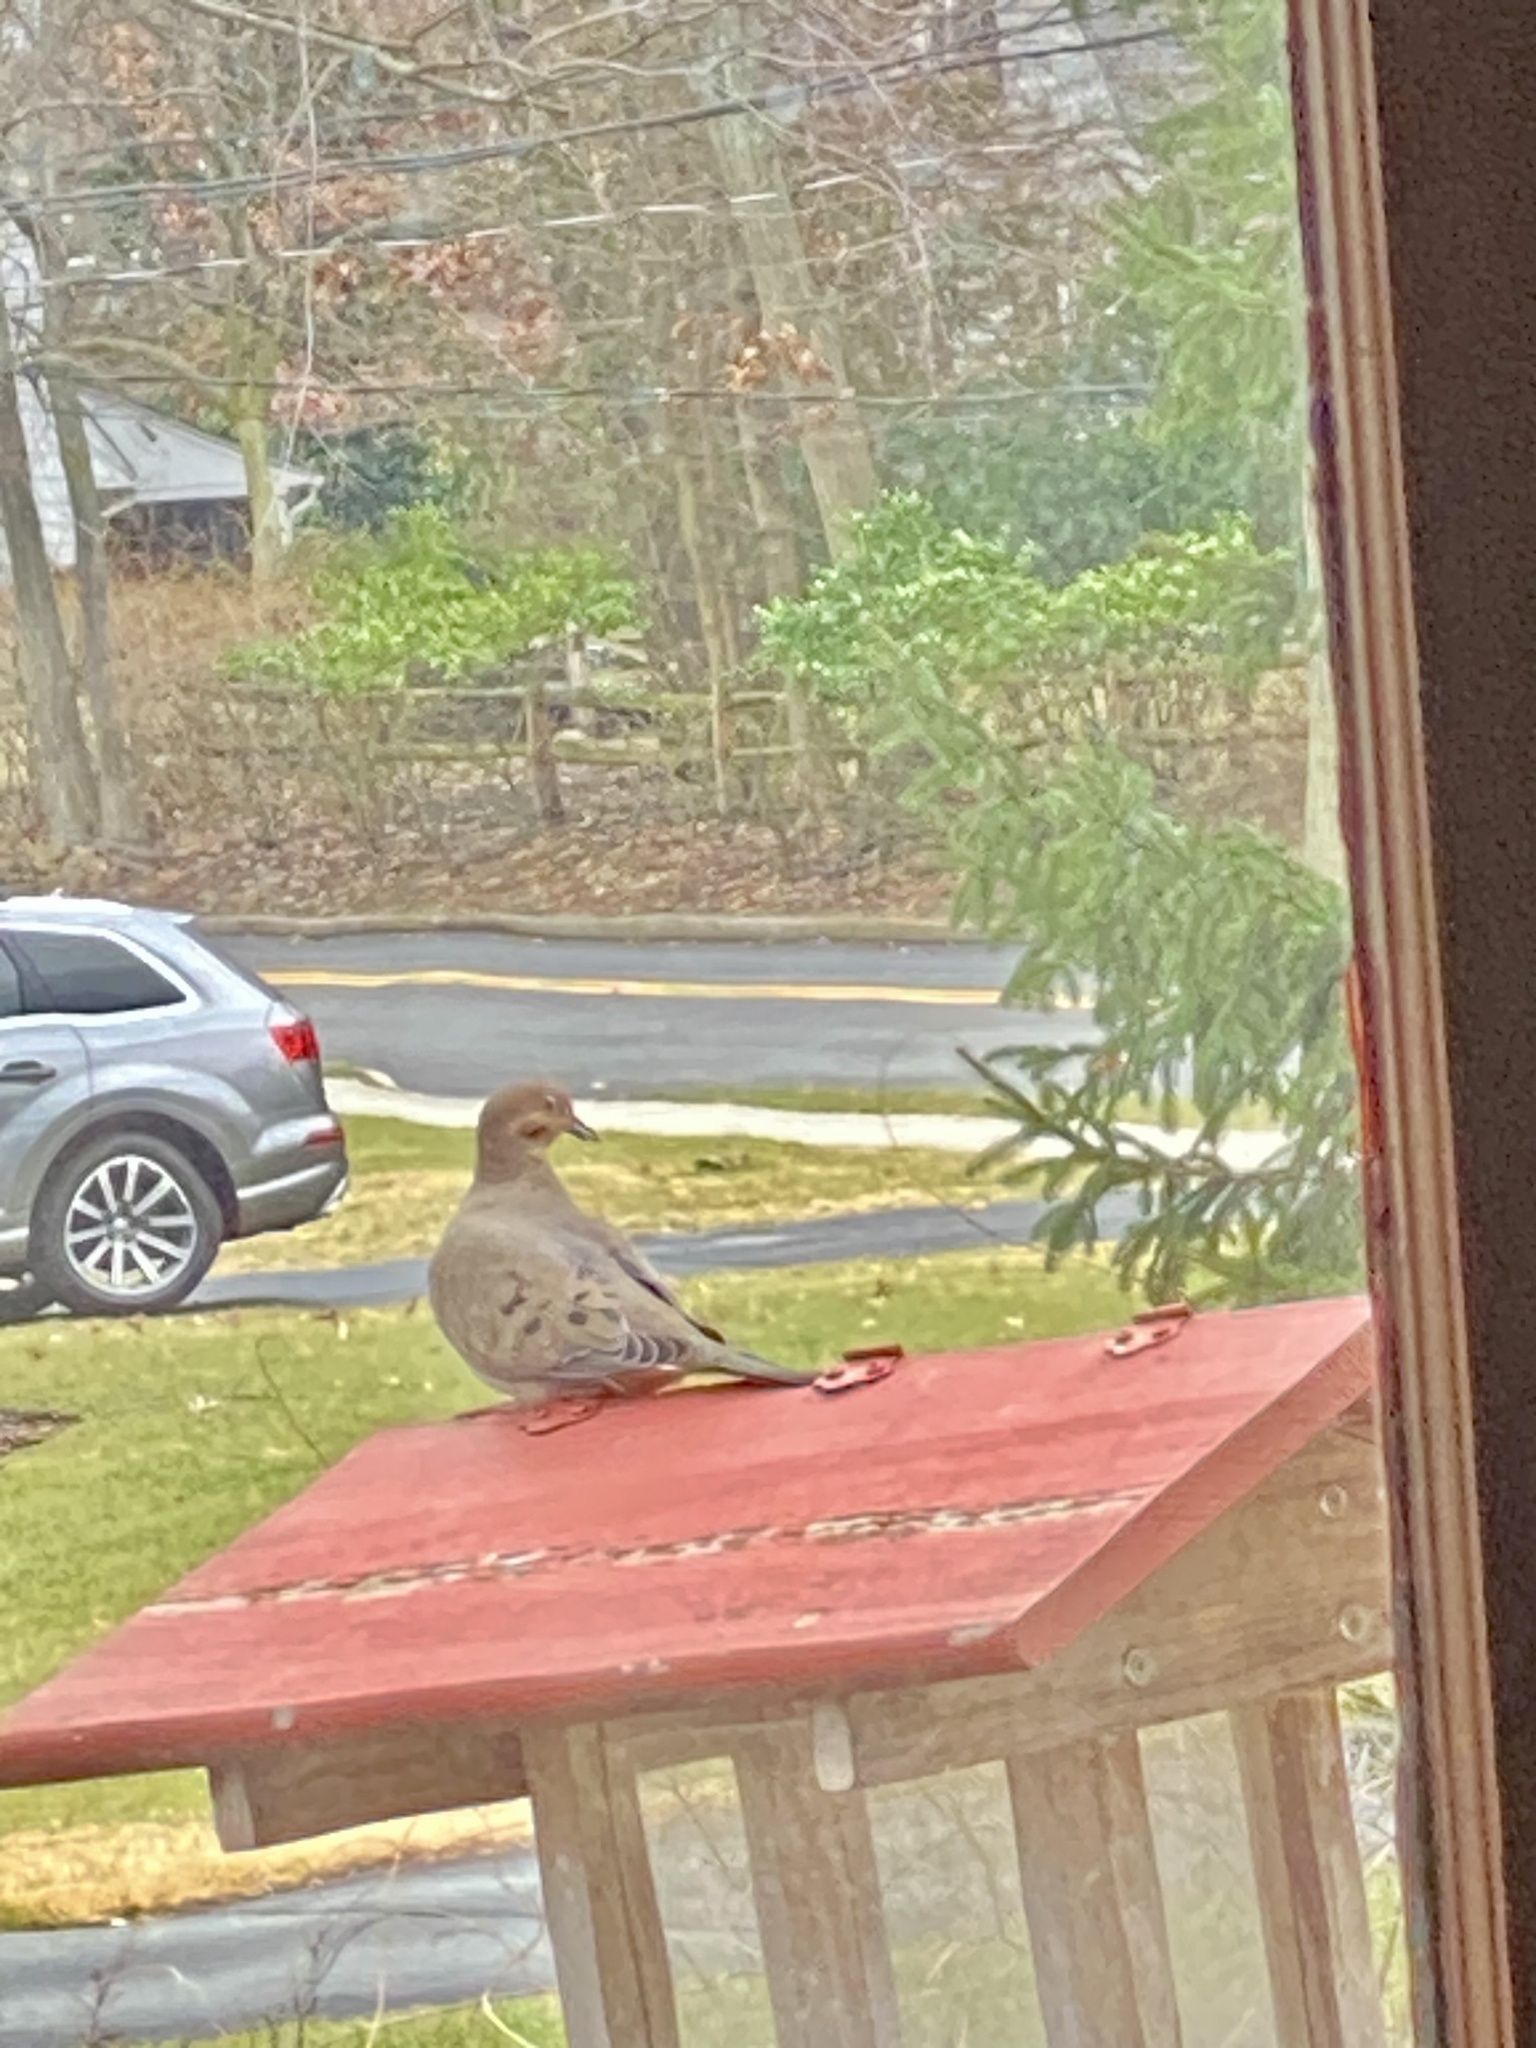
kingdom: Animalia
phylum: Chordata
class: Aves
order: Columbiformes
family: Columbidae
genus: Zenaida
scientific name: Zenaida macroura
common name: Mourning dove
